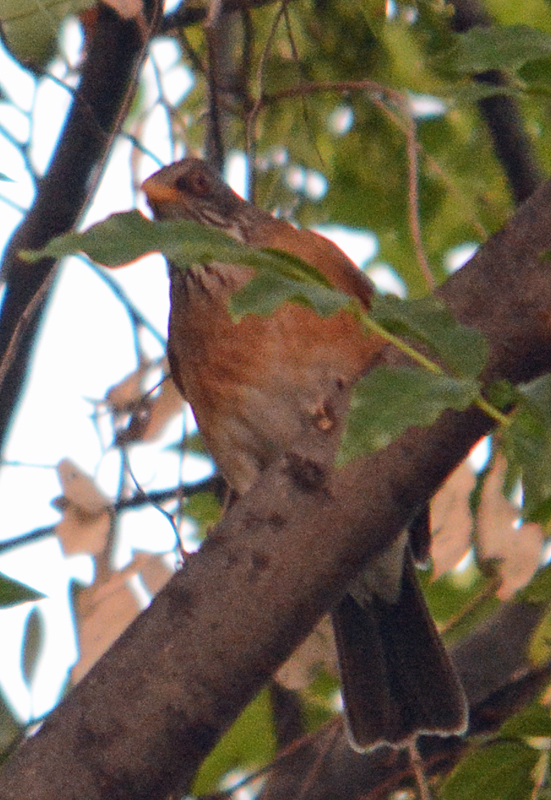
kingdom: Animalia
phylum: Chordata
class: Aves
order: Passeriformes
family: Turdidae
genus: Turdus
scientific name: Turdus rufopalliatus
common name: Rufous-backed robin
